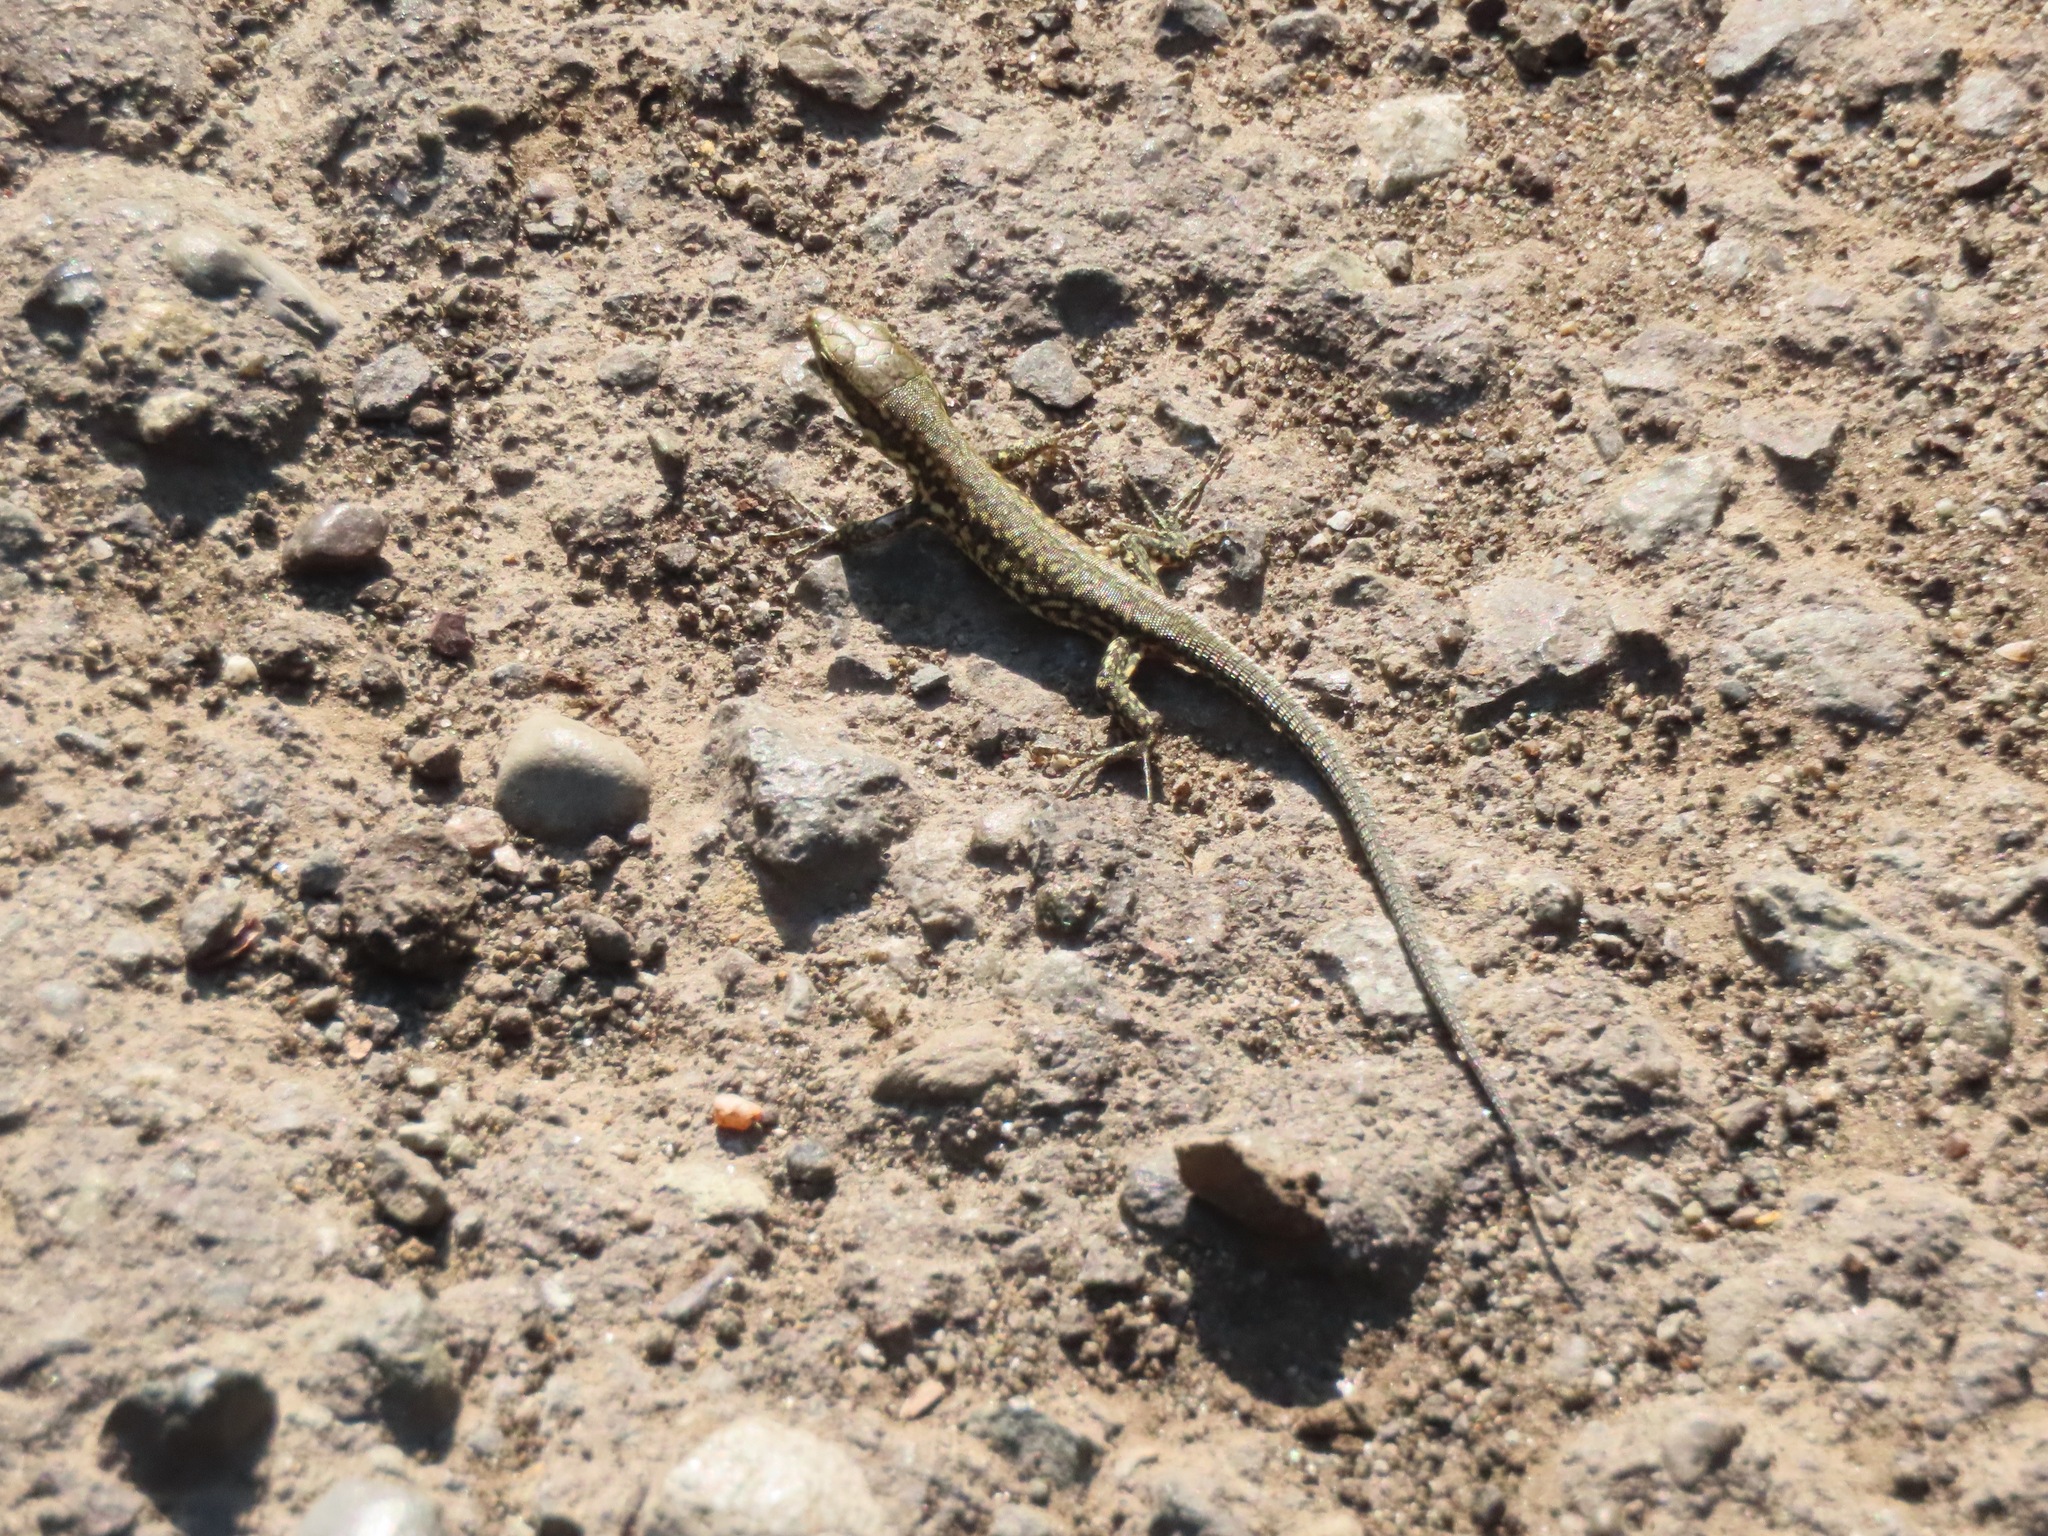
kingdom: Animalia
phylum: Chordata
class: Squamata
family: Lacertidae
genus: Podarcis
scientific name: Podarcis muralis
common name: Common wall lizard
